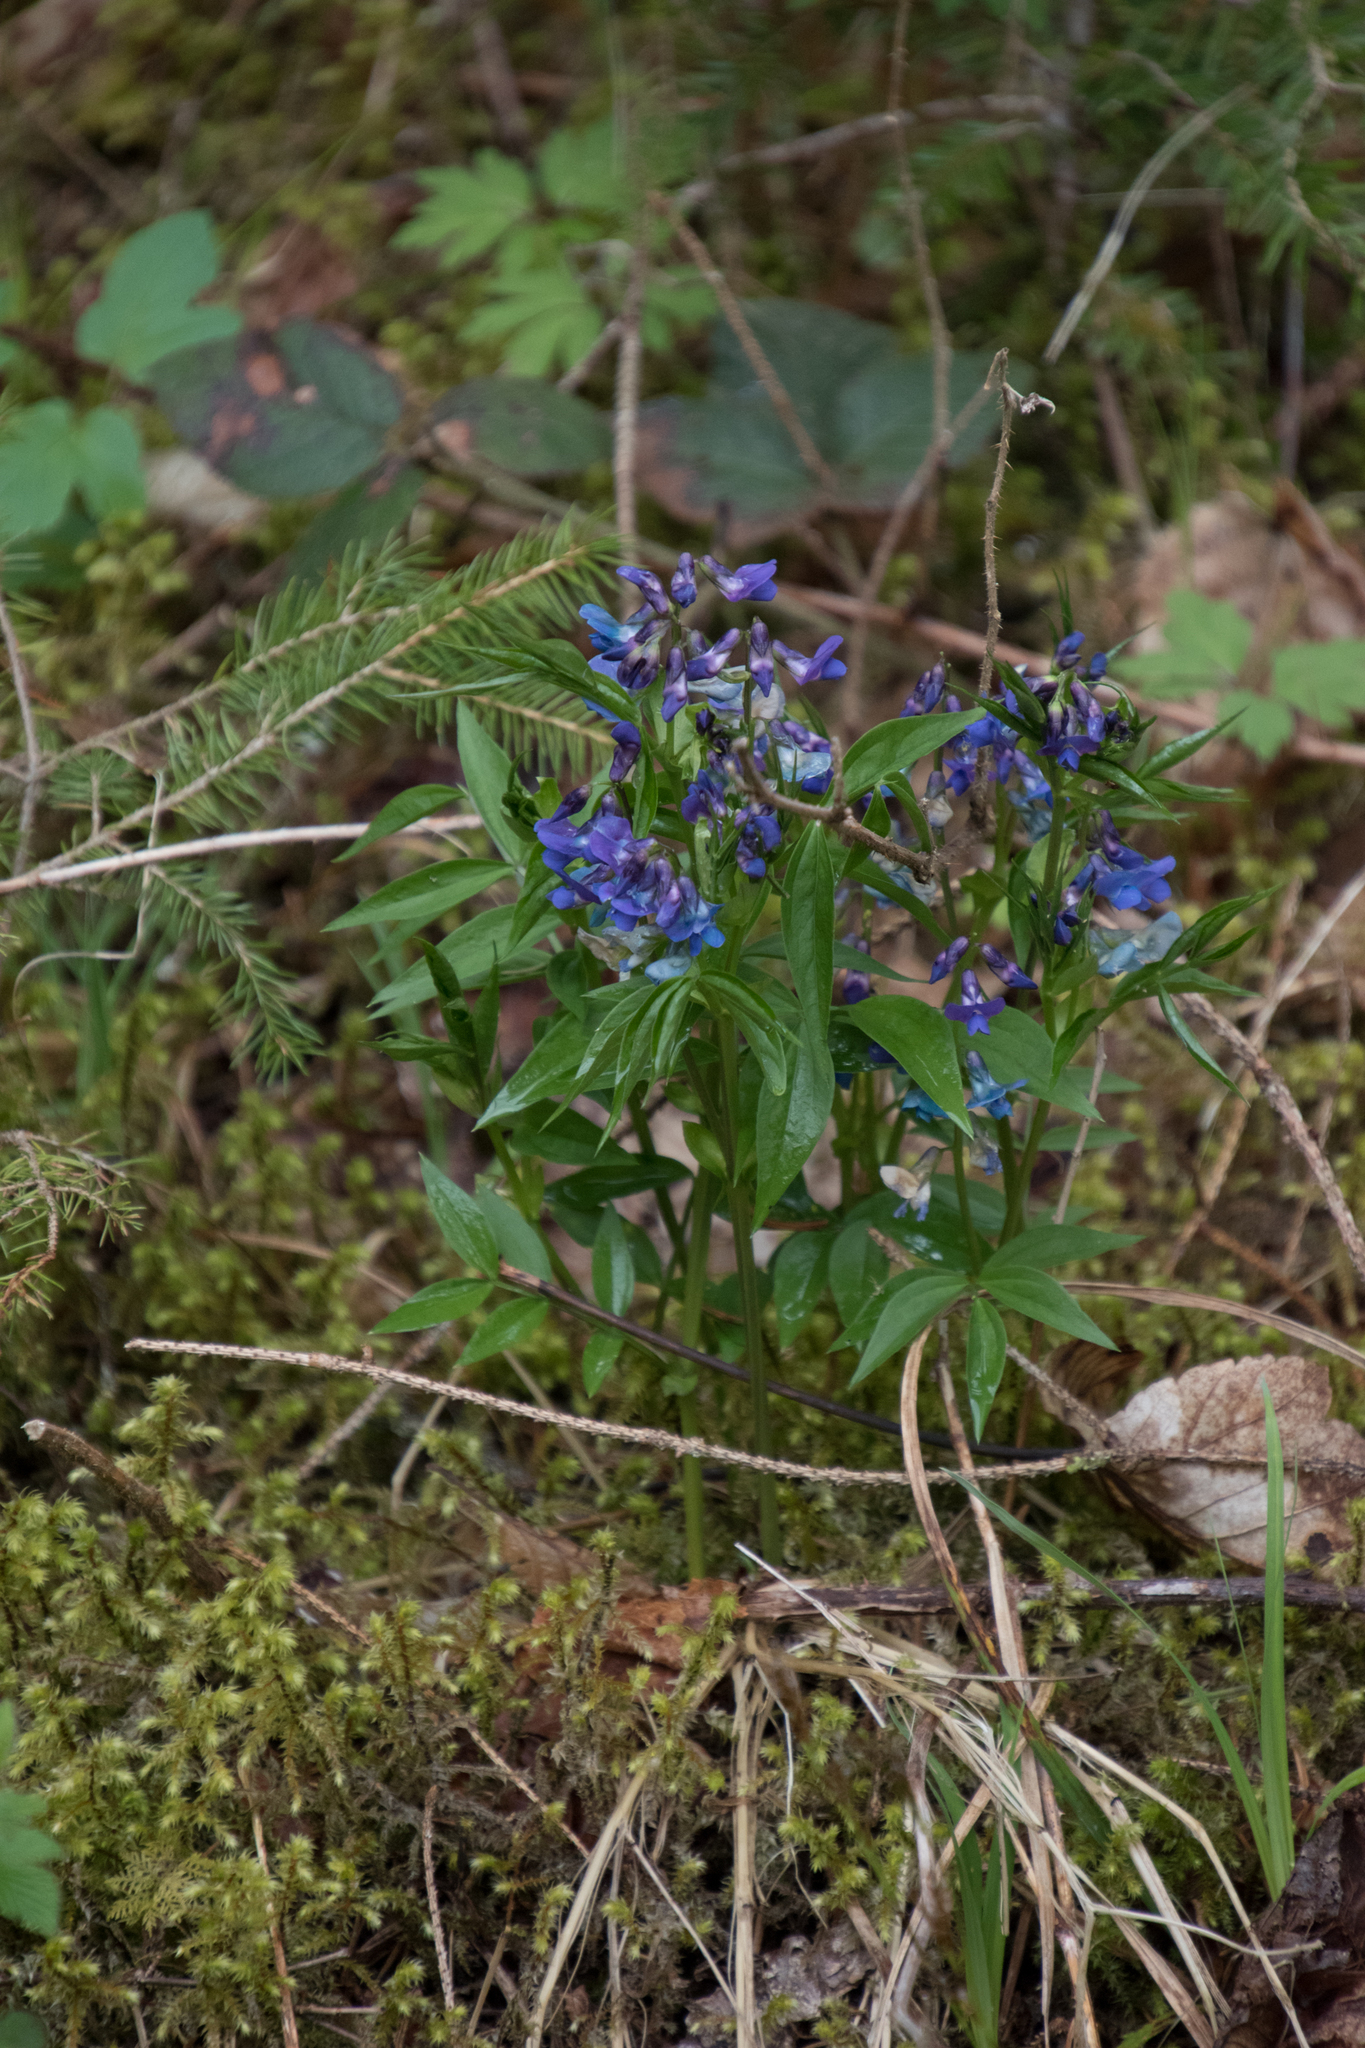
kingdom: Plantae
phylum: Tracheophyta
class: Magnoliopsida
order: Fabales
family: Fabaceae
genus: Lathyrus
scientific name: Lathyrus vernus
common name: Spring pea
